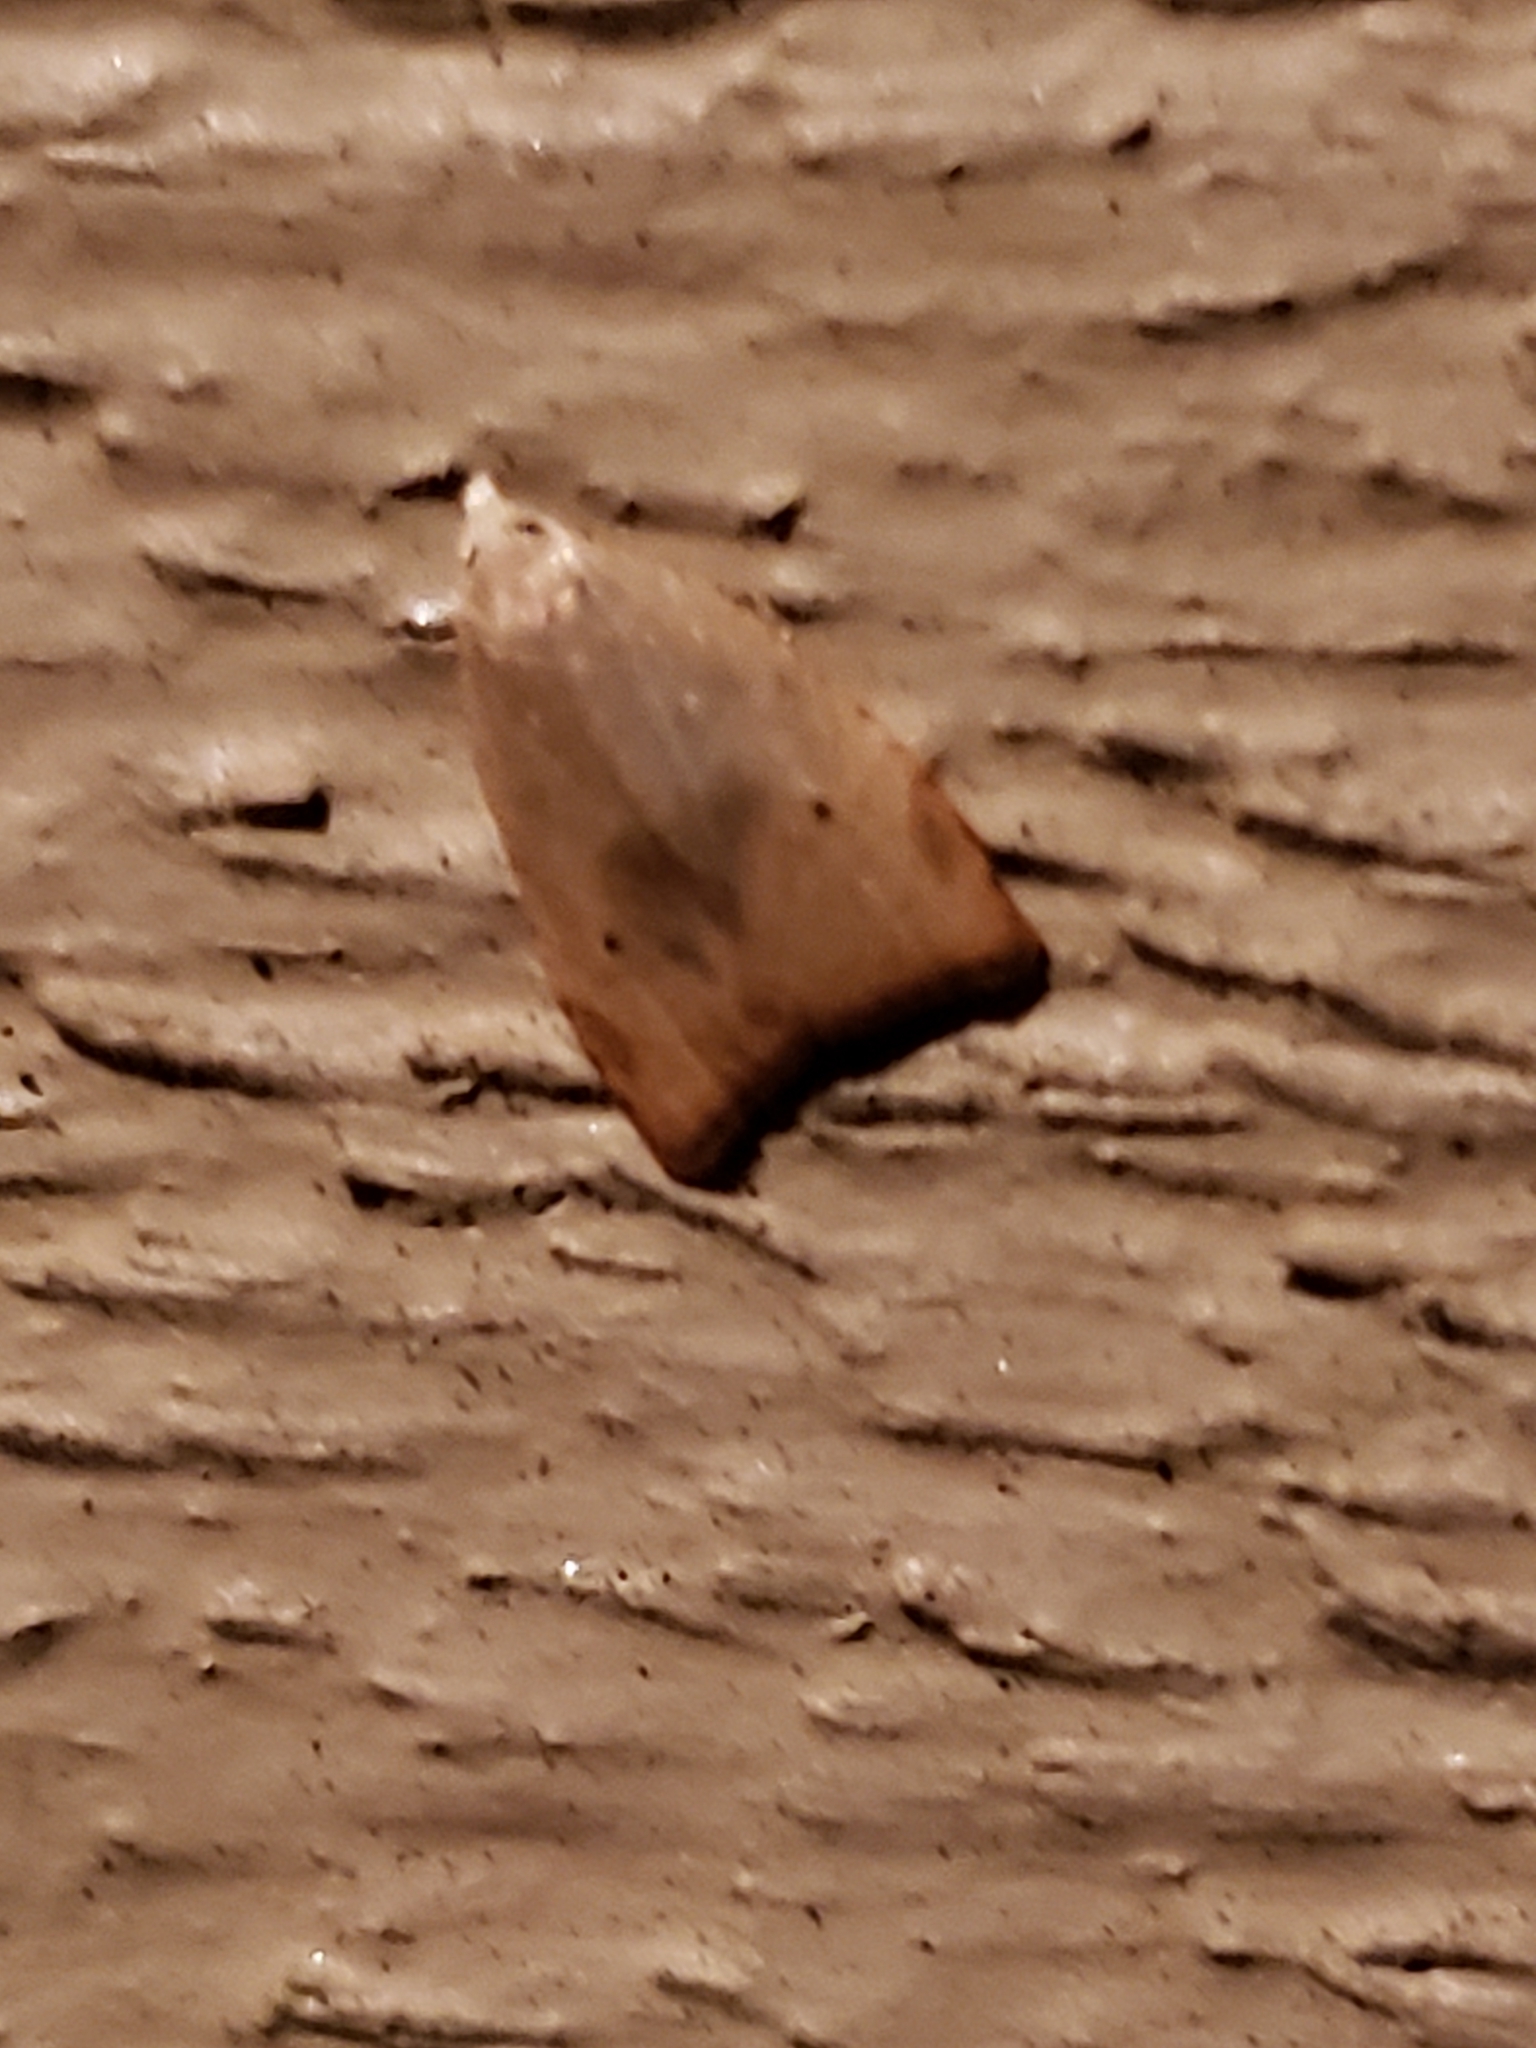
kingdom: Animalia
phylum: Arthropoda
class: Insecta
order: Lepidoptera
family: Tortricidae
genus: Coelostathma
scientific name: Coelostathma discopunctana
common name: Batman moth
